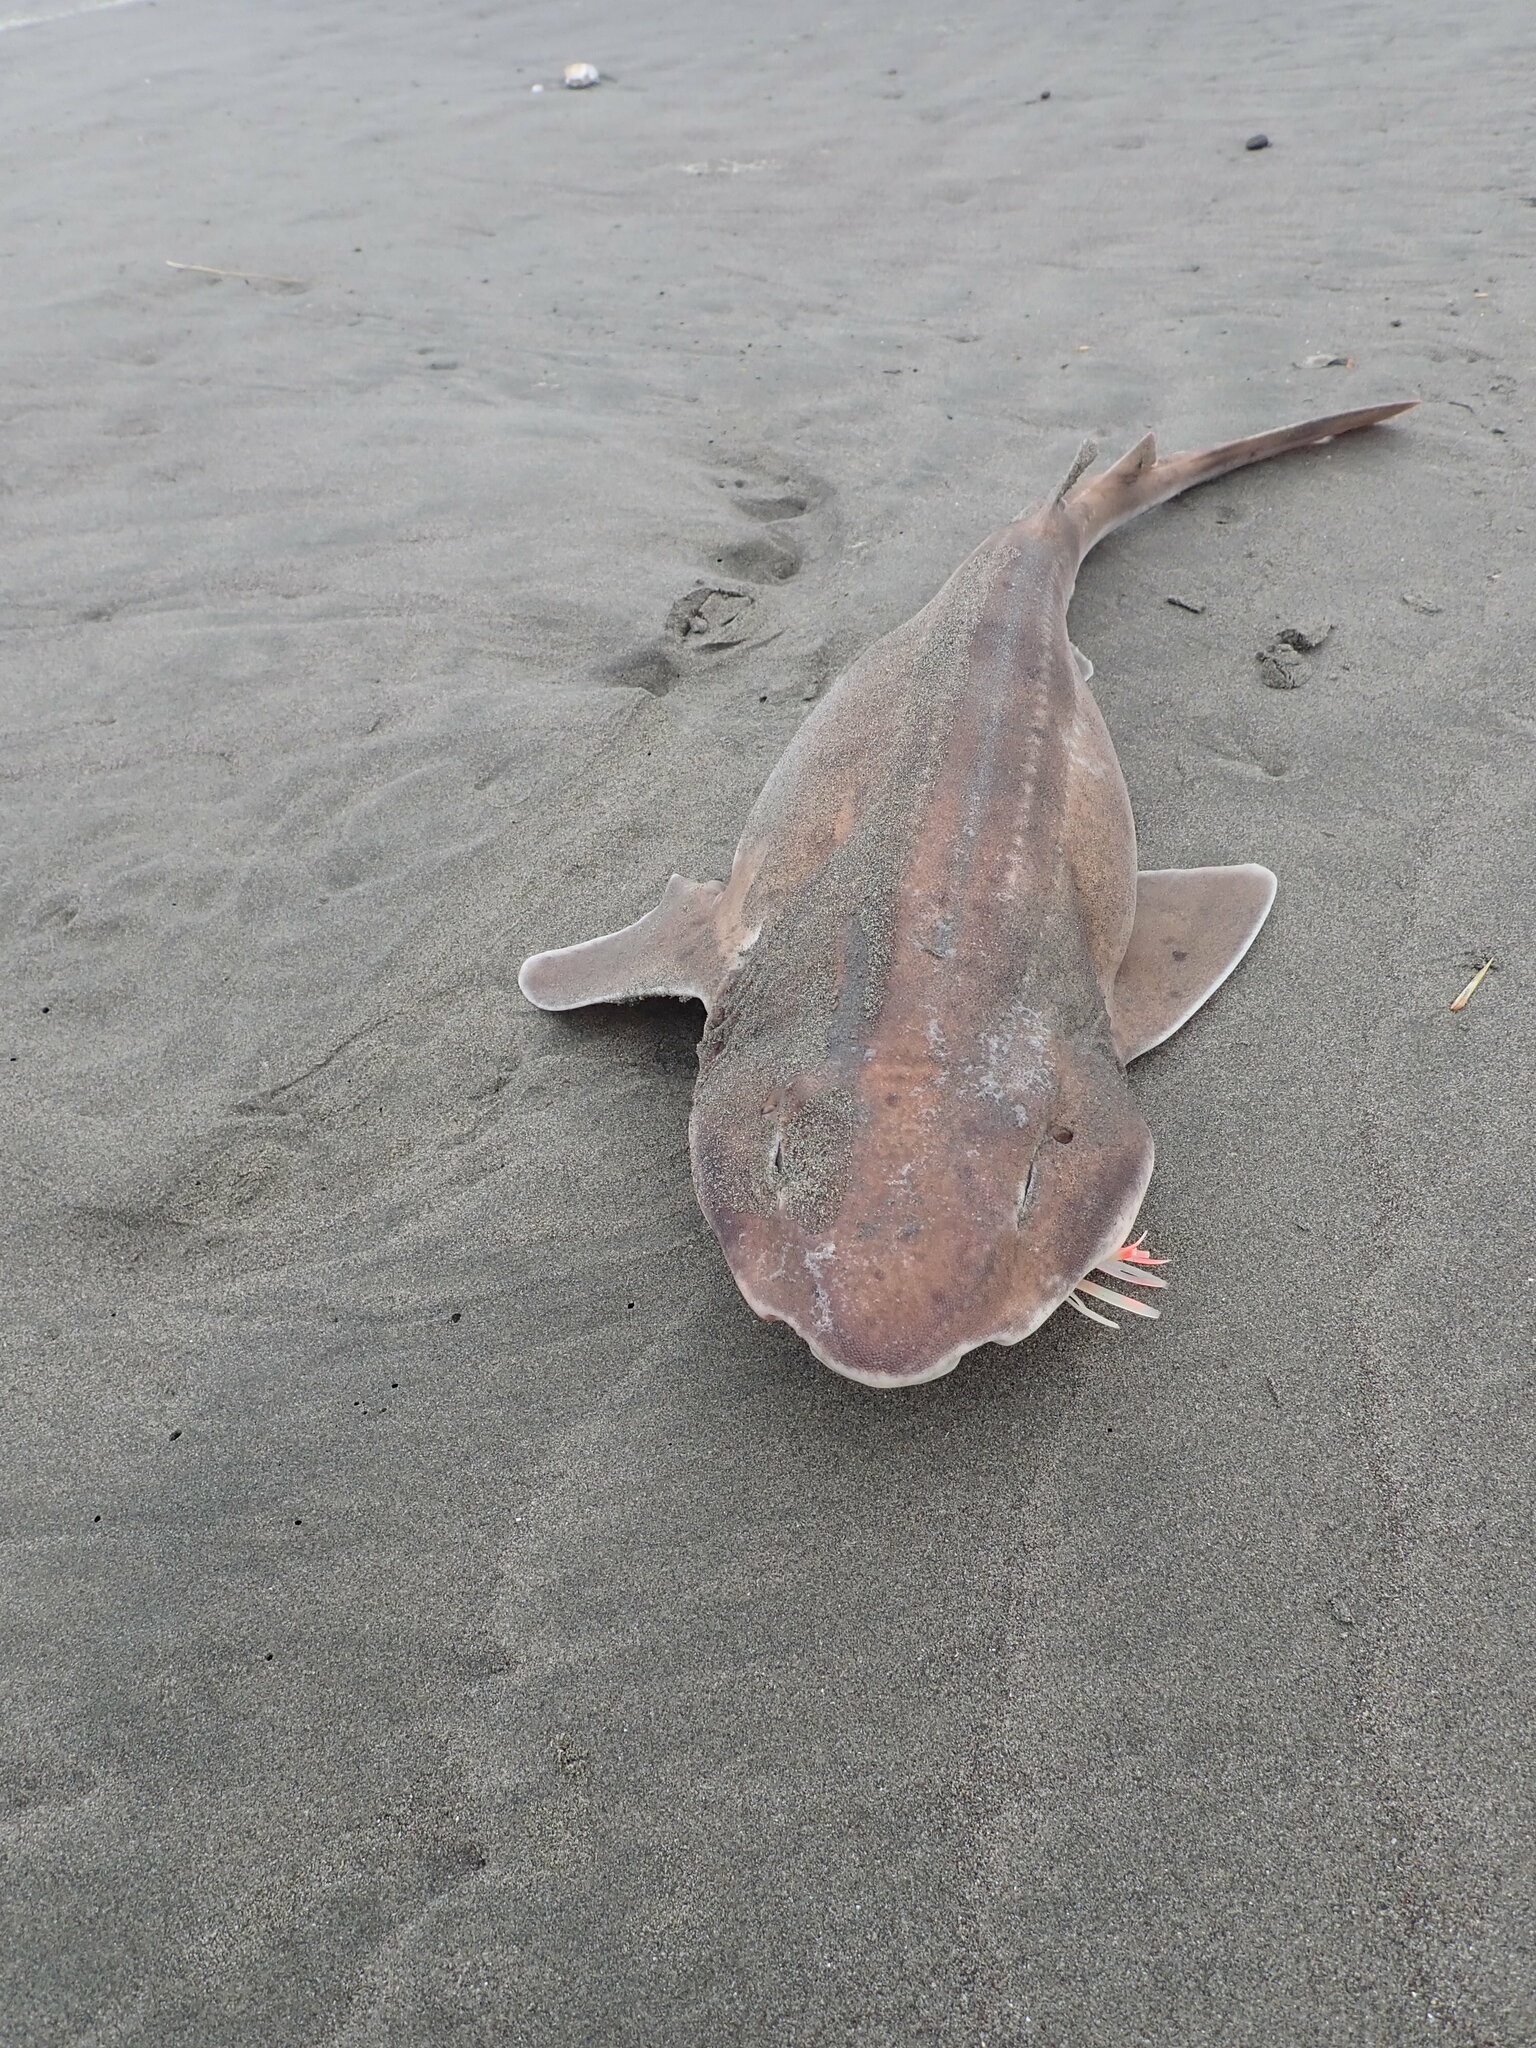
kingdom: Animalia
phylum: Chordata
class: Elasmobranchii
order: Carcharhiniformes
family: Scyliorhinidae
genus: Cephaloscyllium
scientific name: Cephaloscyllium isabellum
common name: Carpet shark
